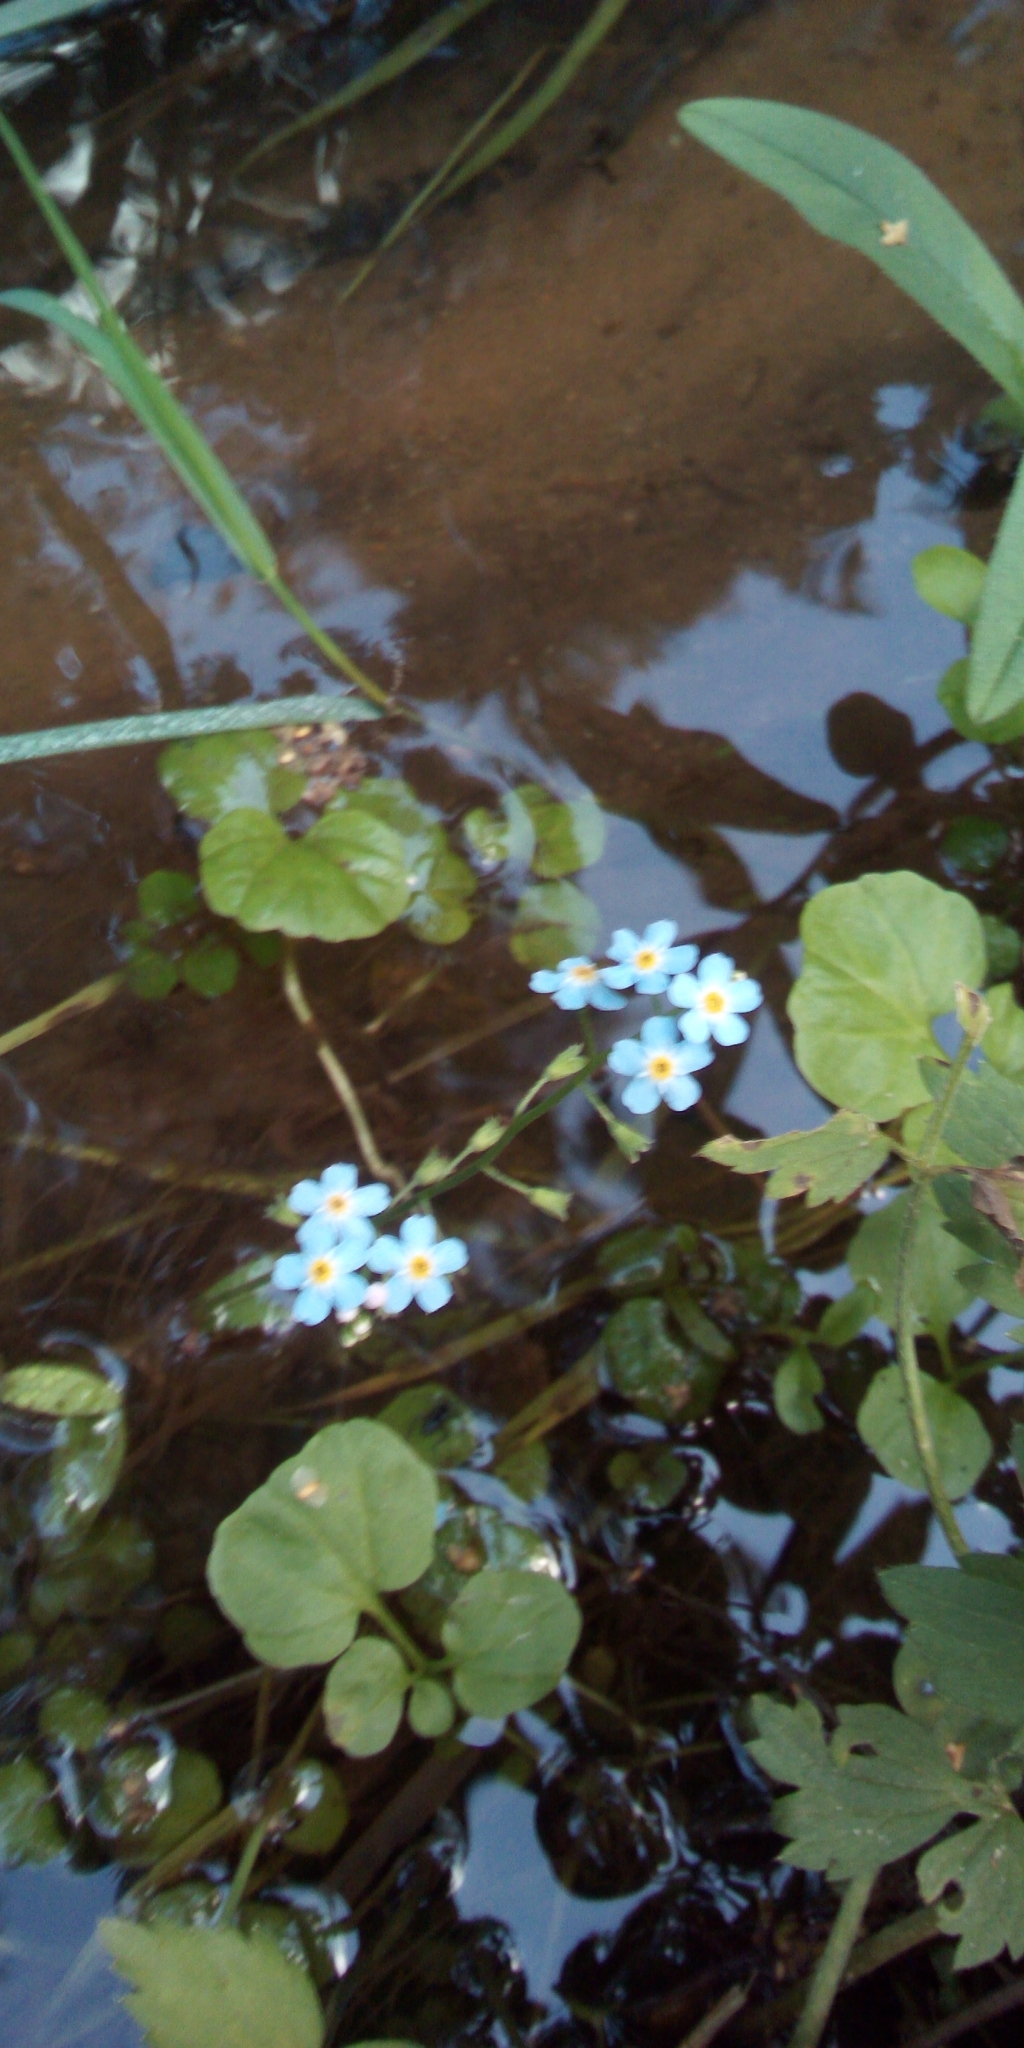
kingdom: Plantae
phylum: Tracheophyta
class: Magnoliopsida
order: Boraginales
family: Boraginaceae
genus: Myosotis
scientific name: Myosotis scorpioides
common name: Water forget-me-not
